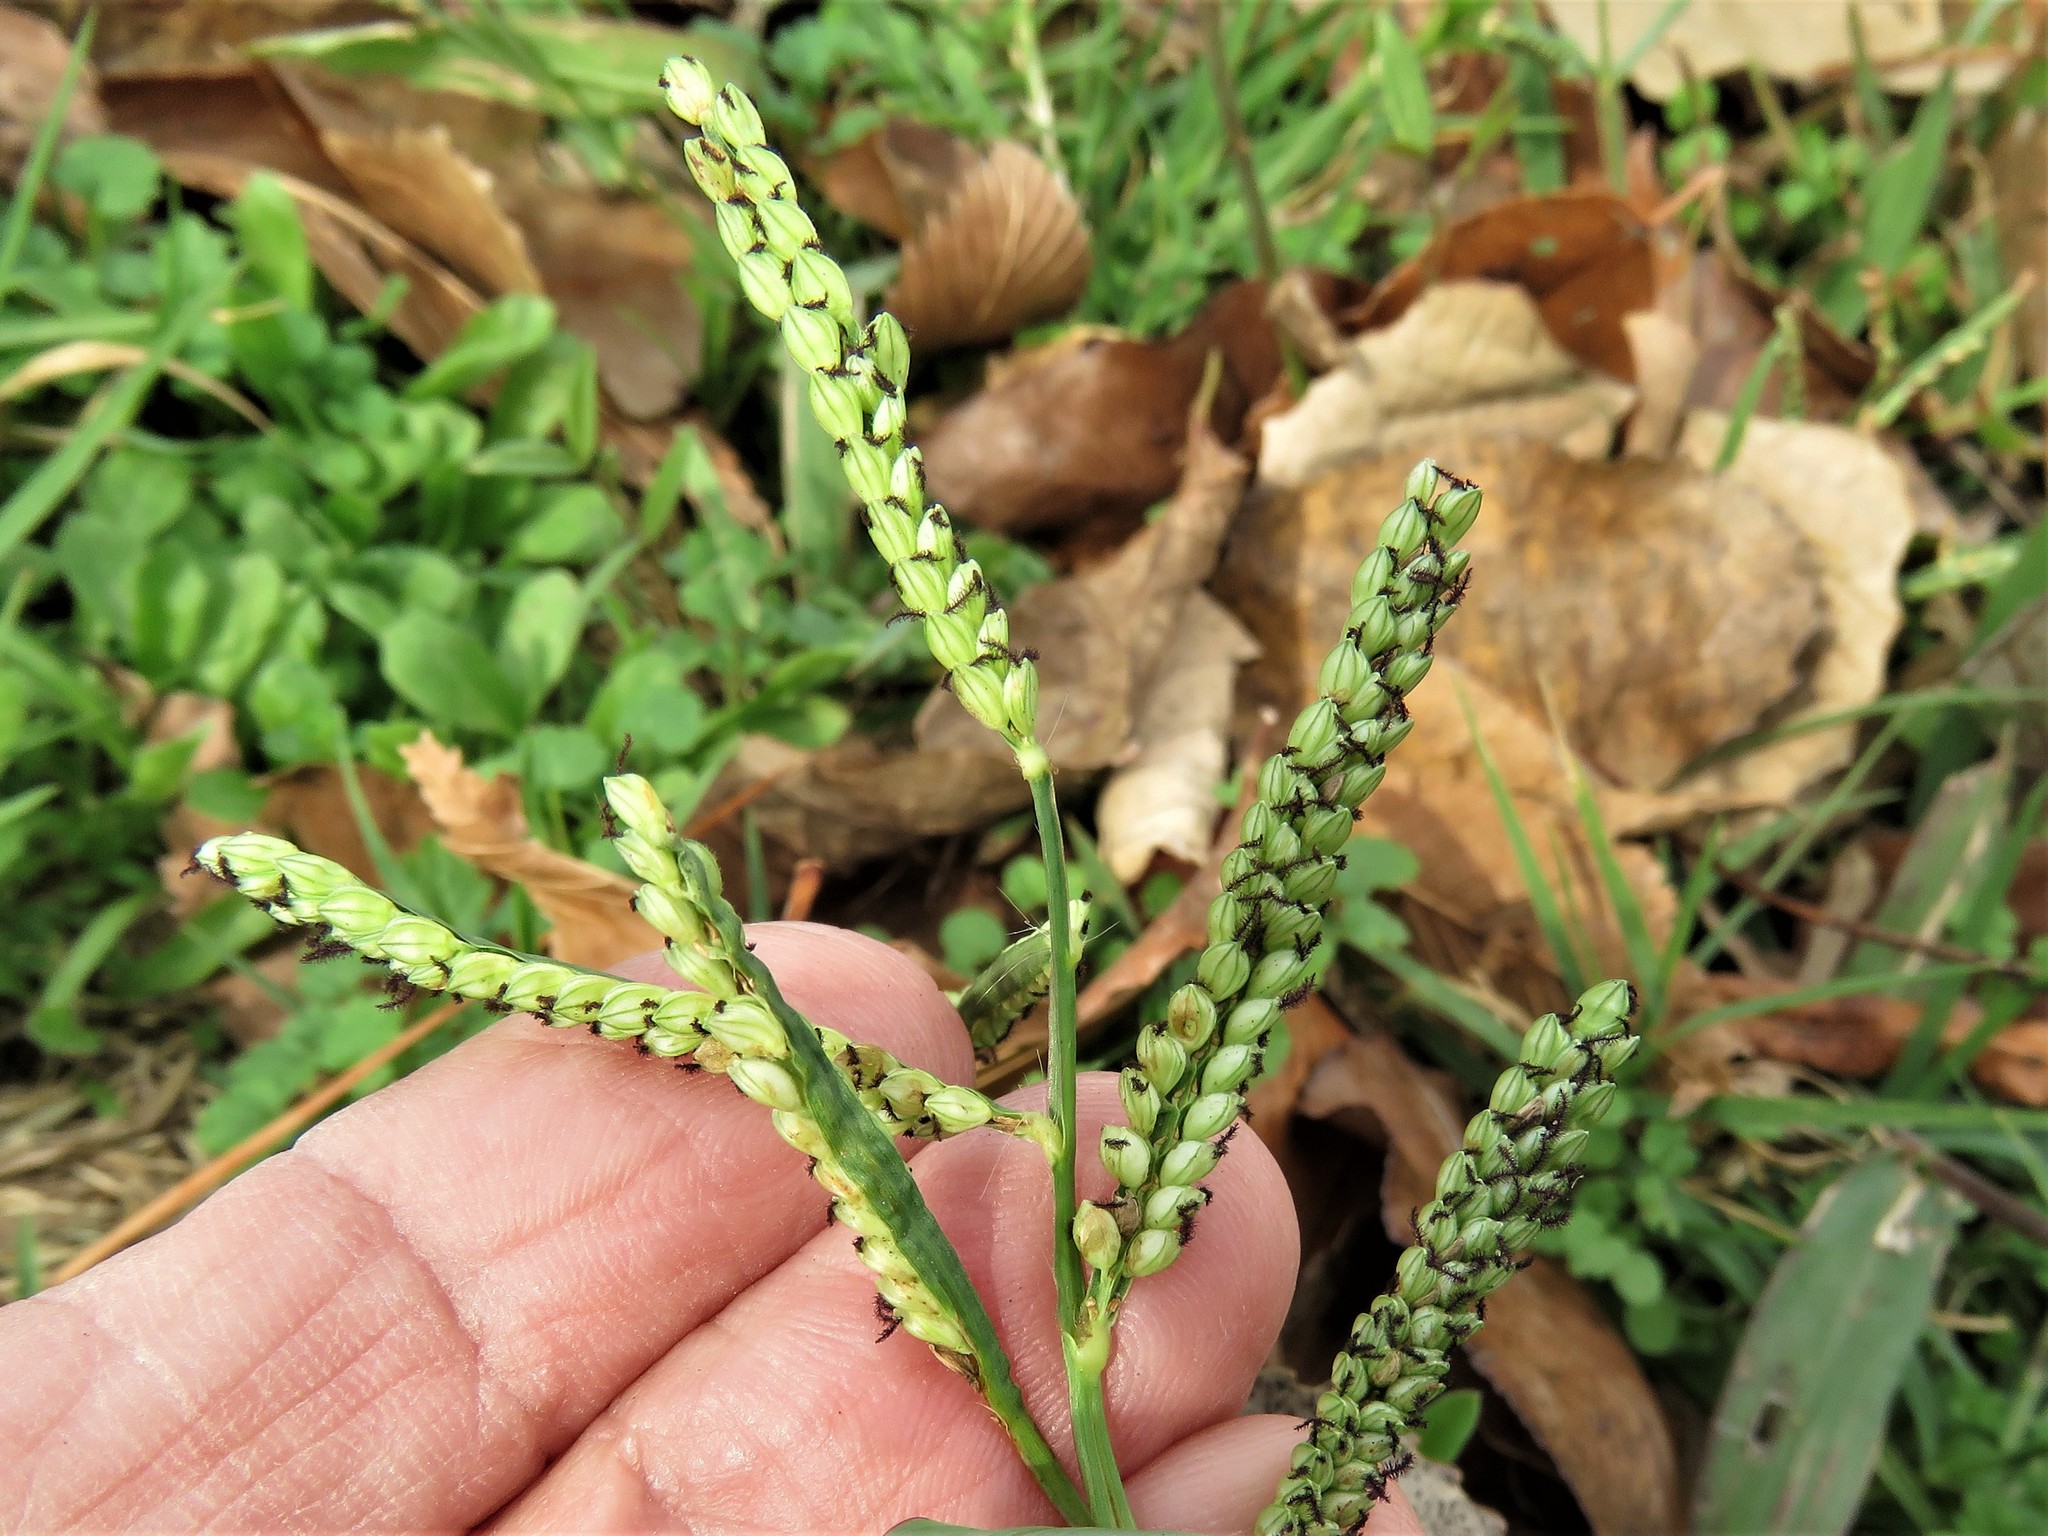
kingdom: Plantae
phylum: Tracheophyta
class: Liliopsida
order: Poales
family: Poaceae
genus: Paspalum
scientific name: Paspalum pubiflorum
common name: Hairy-seed paspalum
